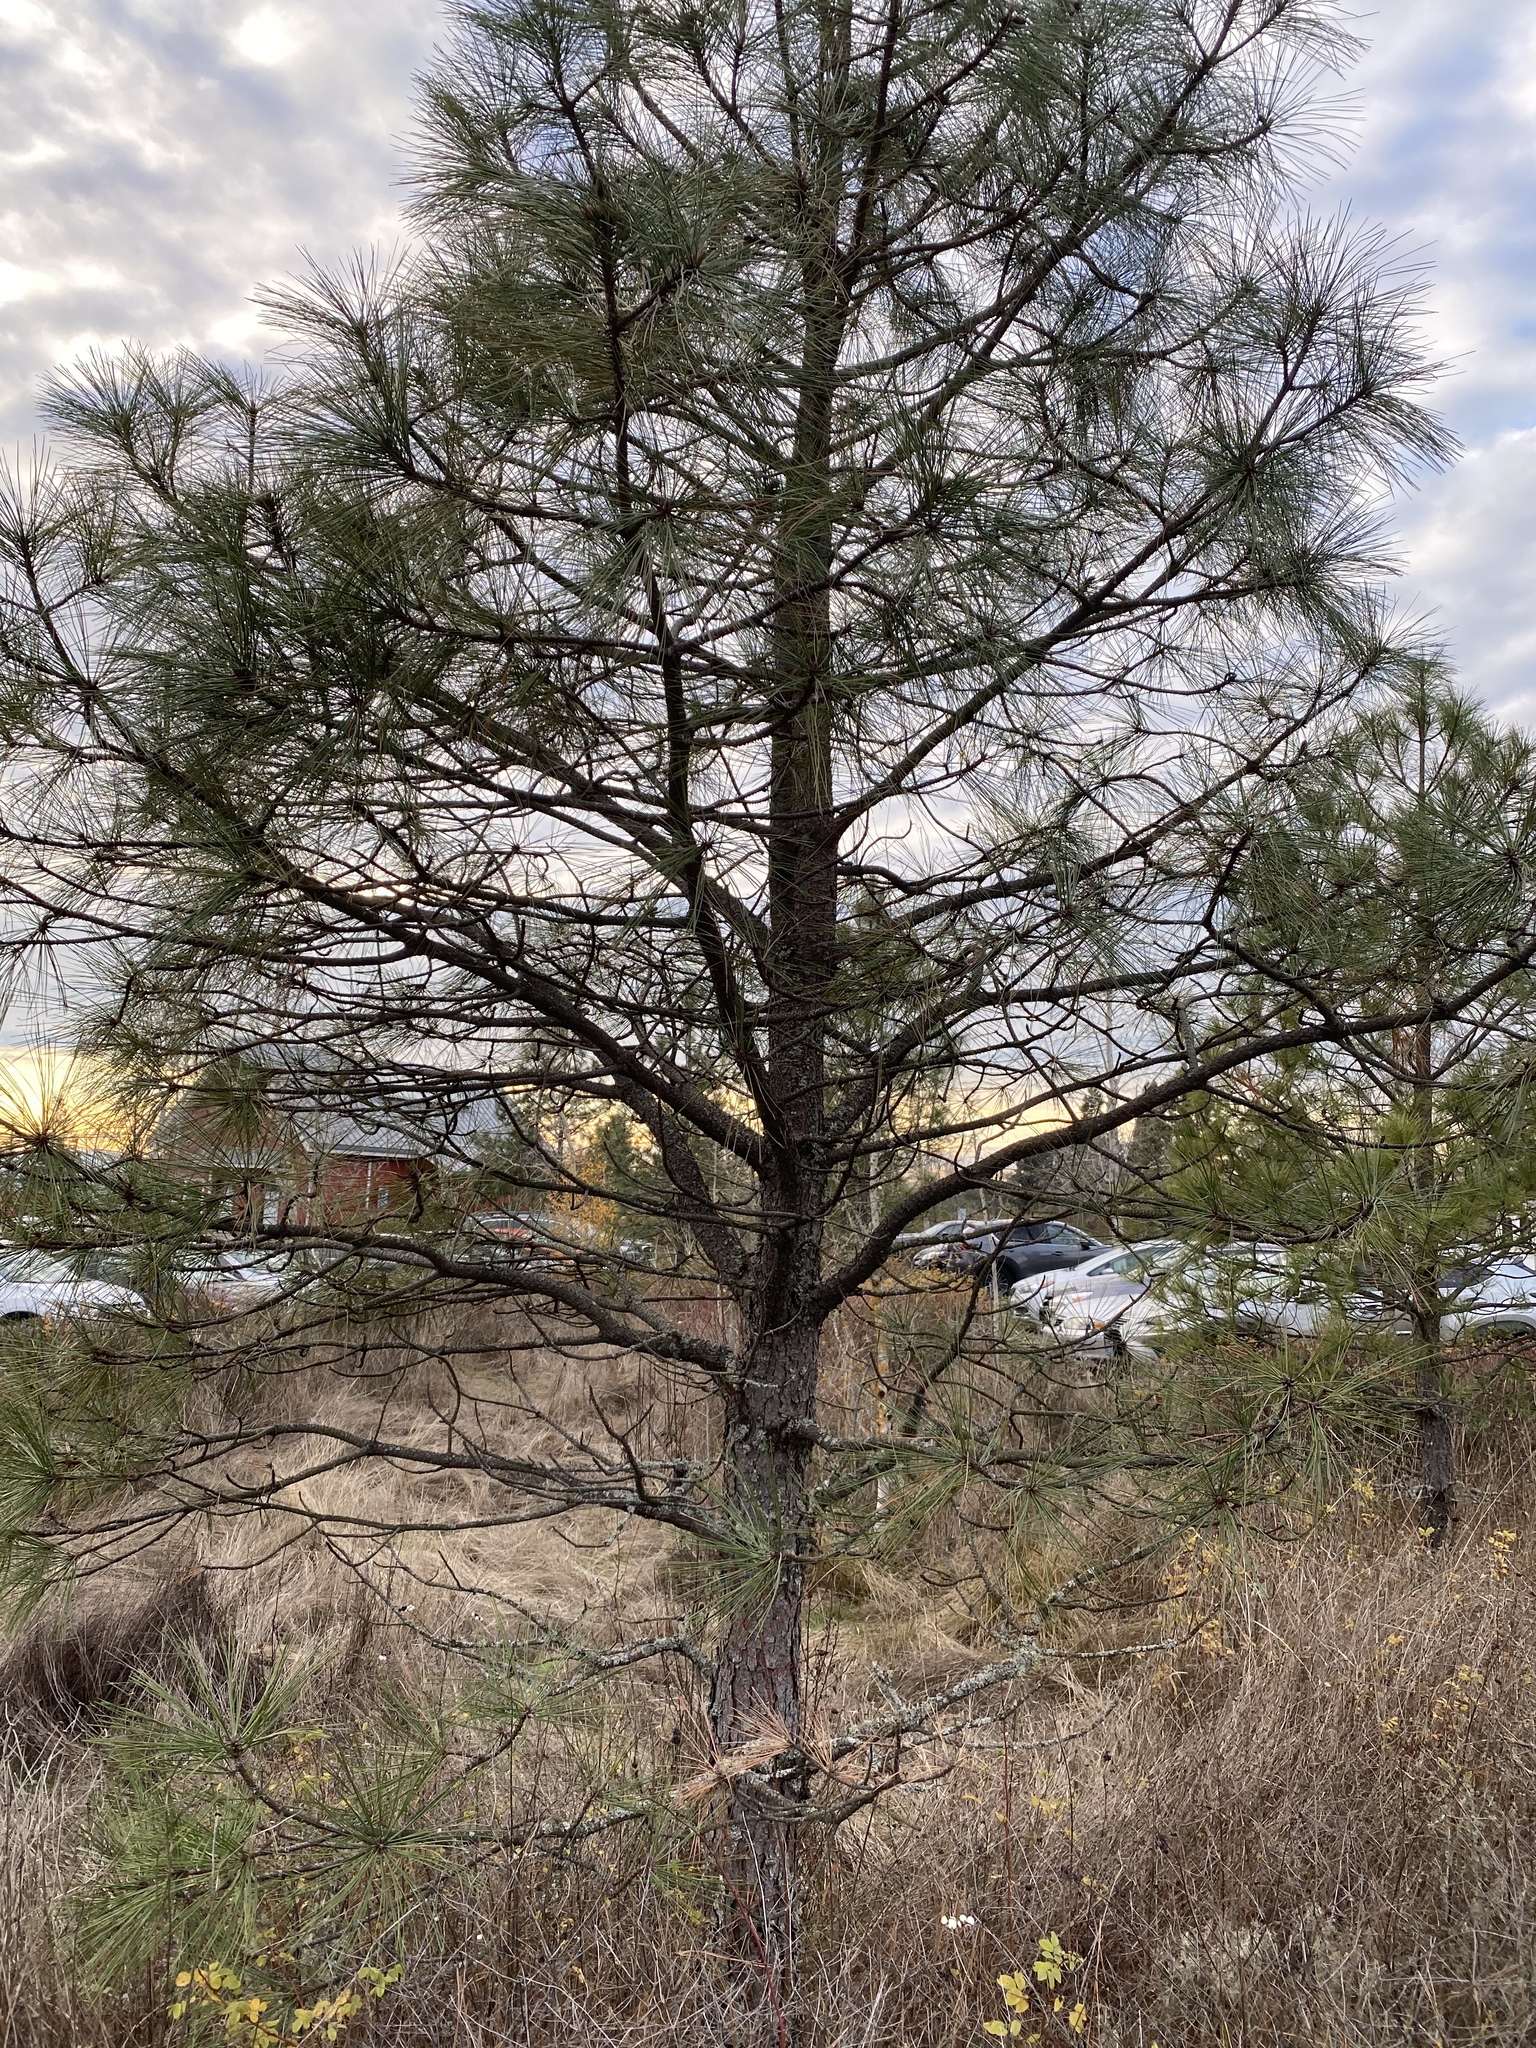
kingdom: Plantae
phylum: Tracheophyta
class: Pinopsida
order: Pinales
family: Pinaceae
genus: Pinus
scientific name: Pinus ponderosa
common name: Western yellow-pine
